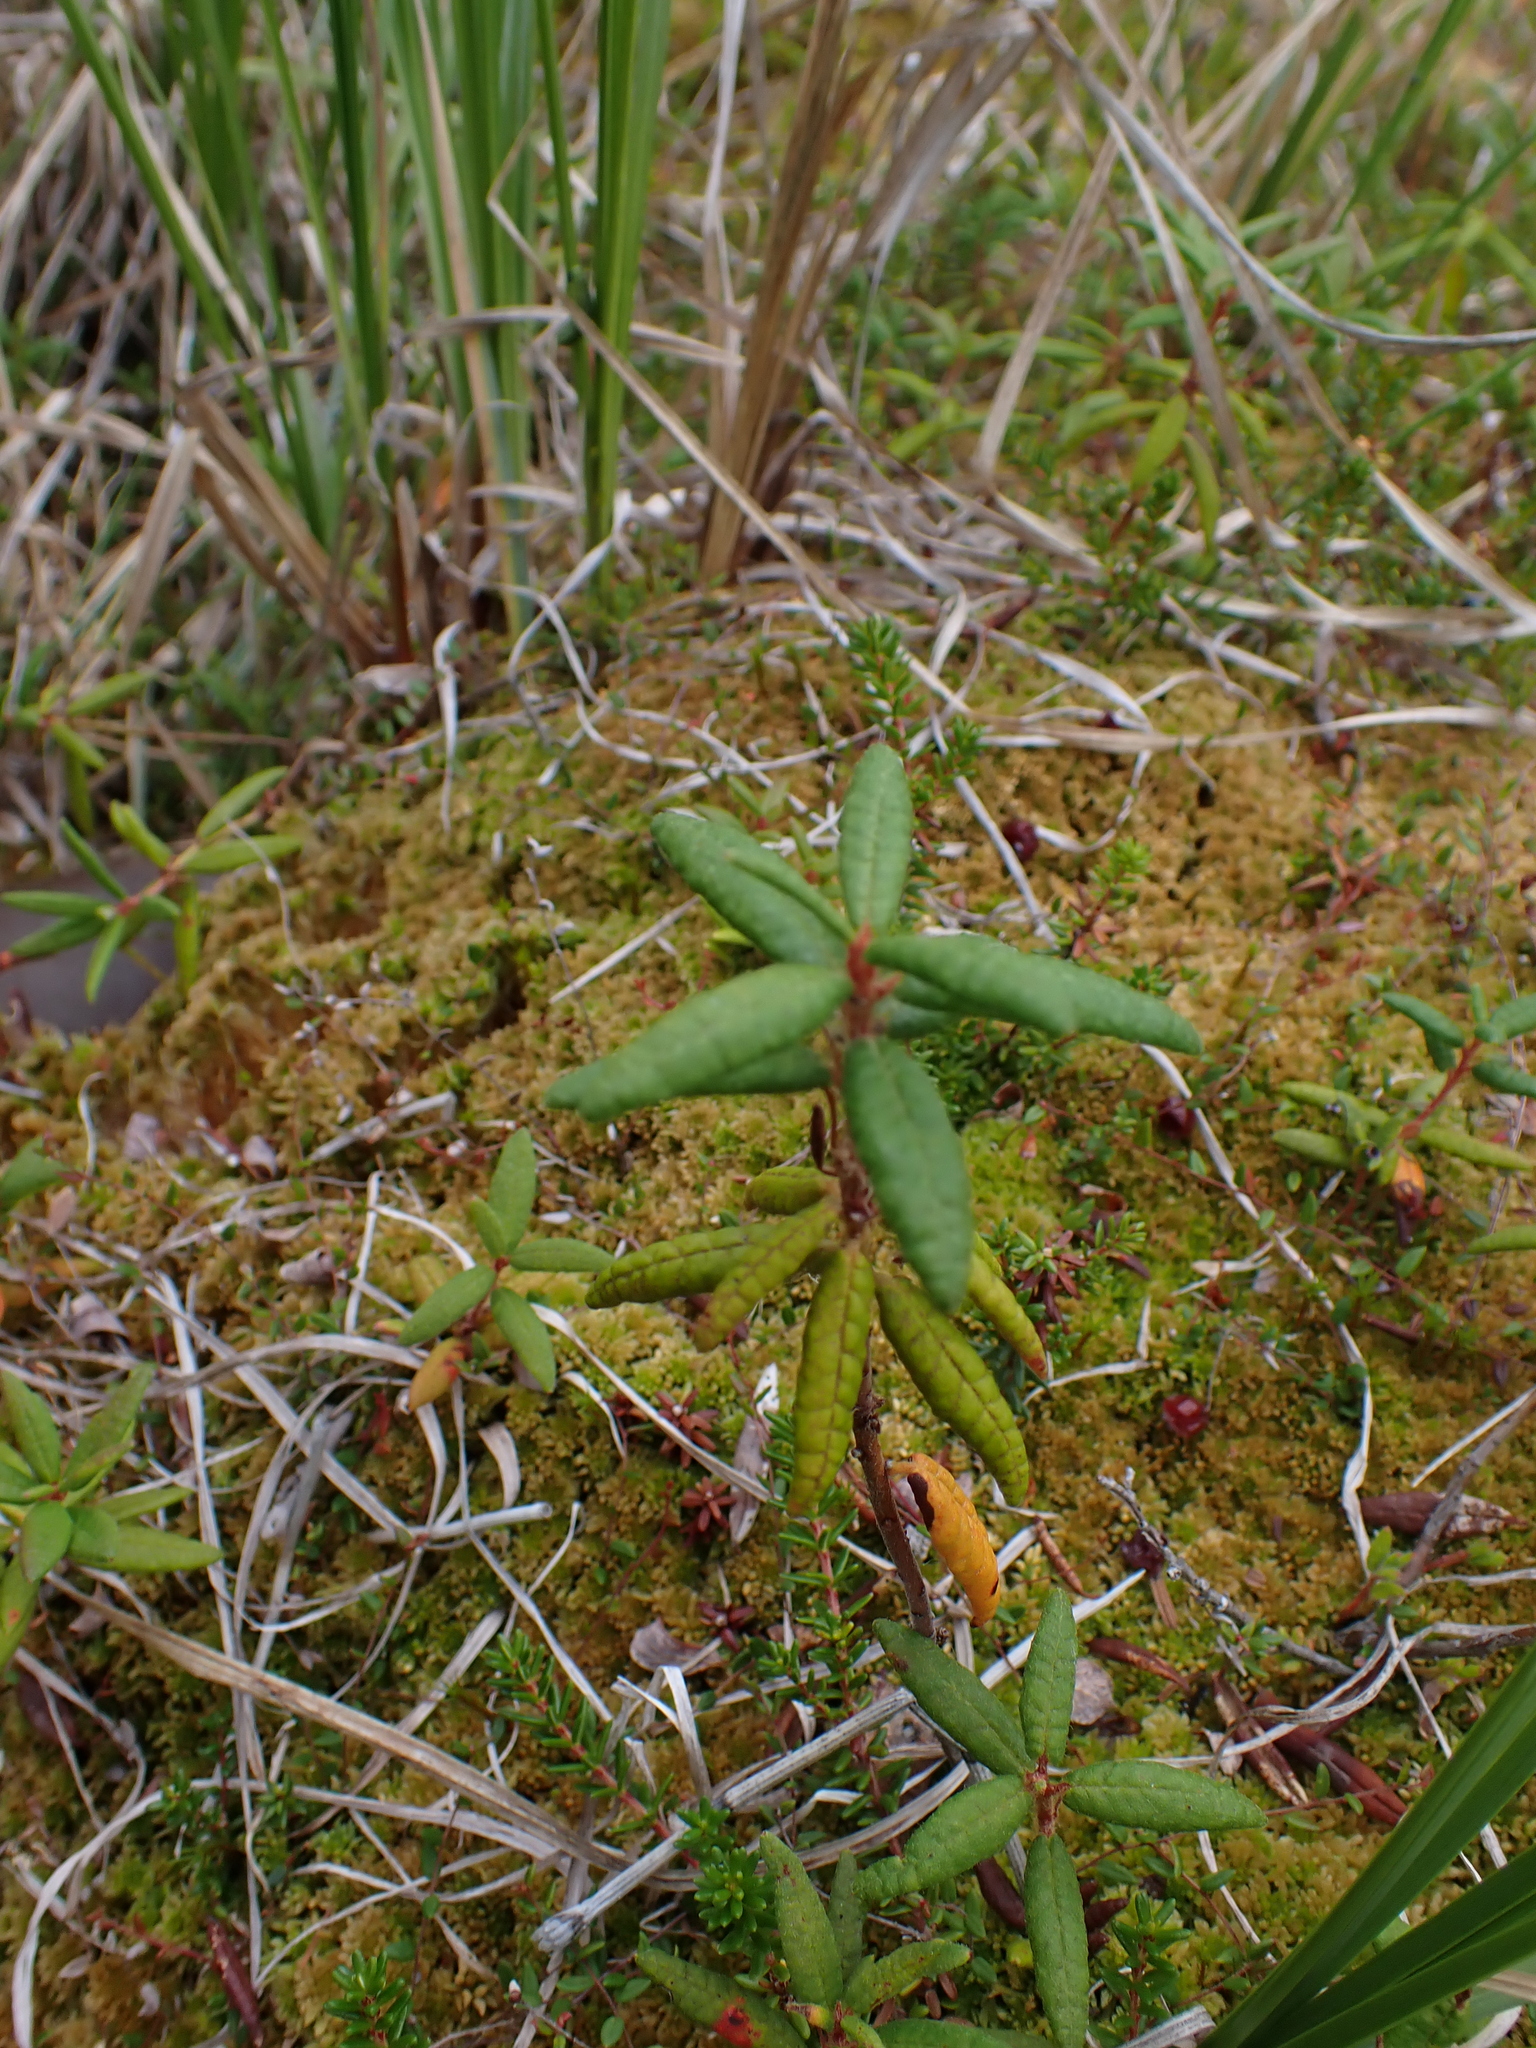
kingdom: Plantae
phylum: Tracheophyta
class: Magnoliopsida
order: Ericales
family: Ericaceae
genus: Rhododendron
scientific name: Rhododendron groenlandicum
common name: Bog labrador tea
